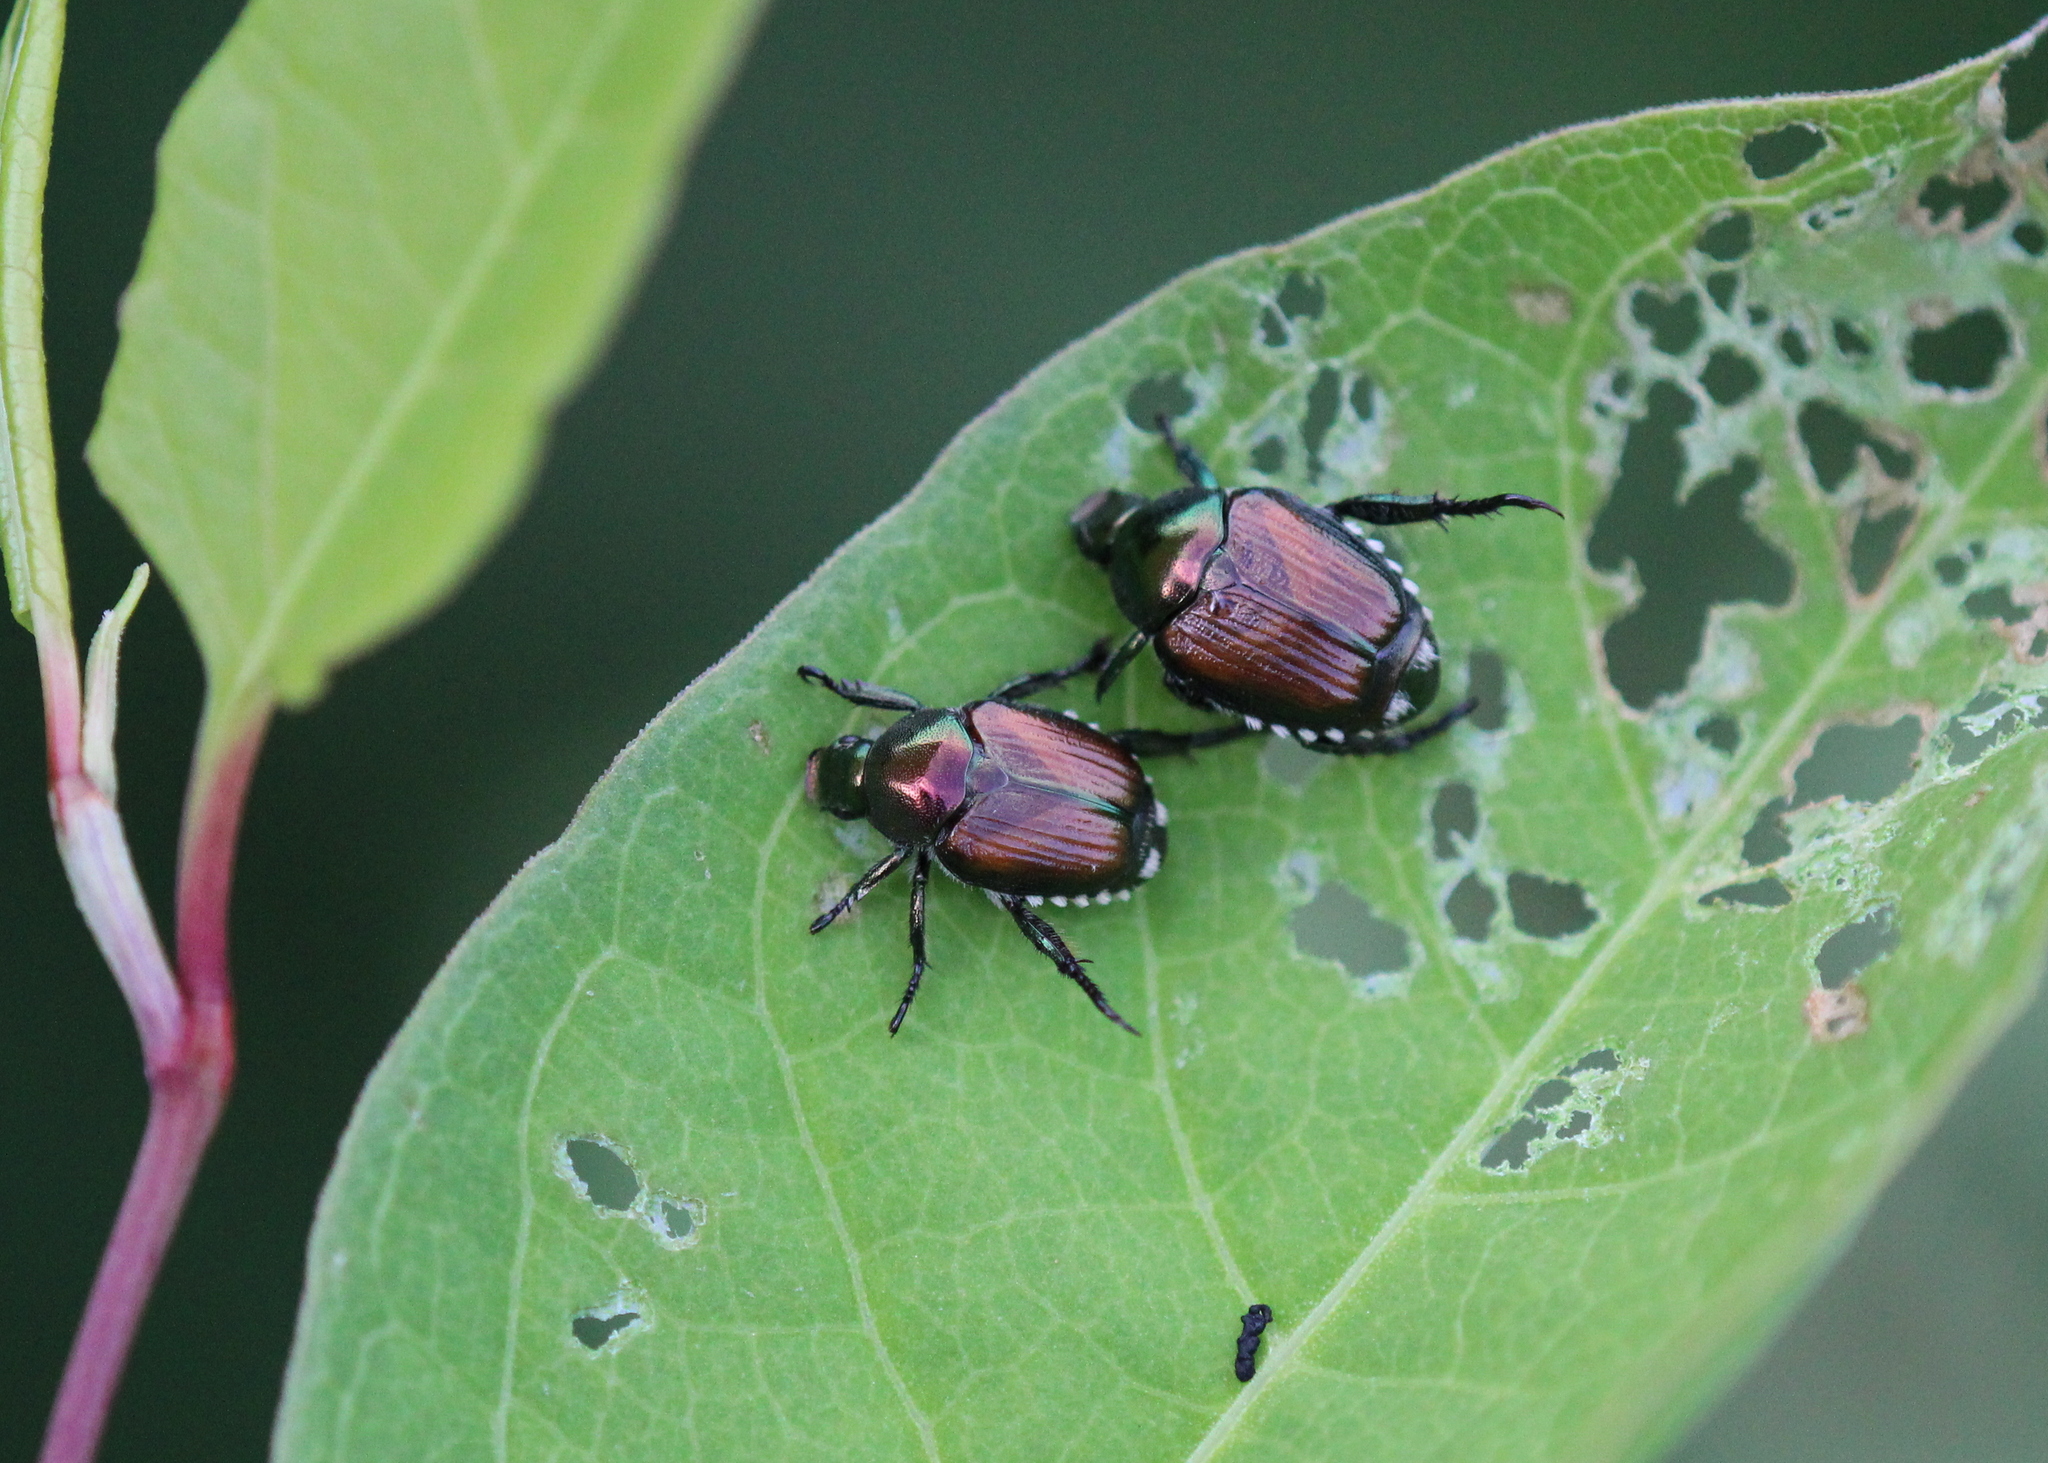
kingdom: Animalia
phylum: Arthropoda
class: Insecta
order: Coleoptera
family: Scarabaeidae
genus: Popillia
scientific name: Popillia japonica
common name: Japanese beetle
